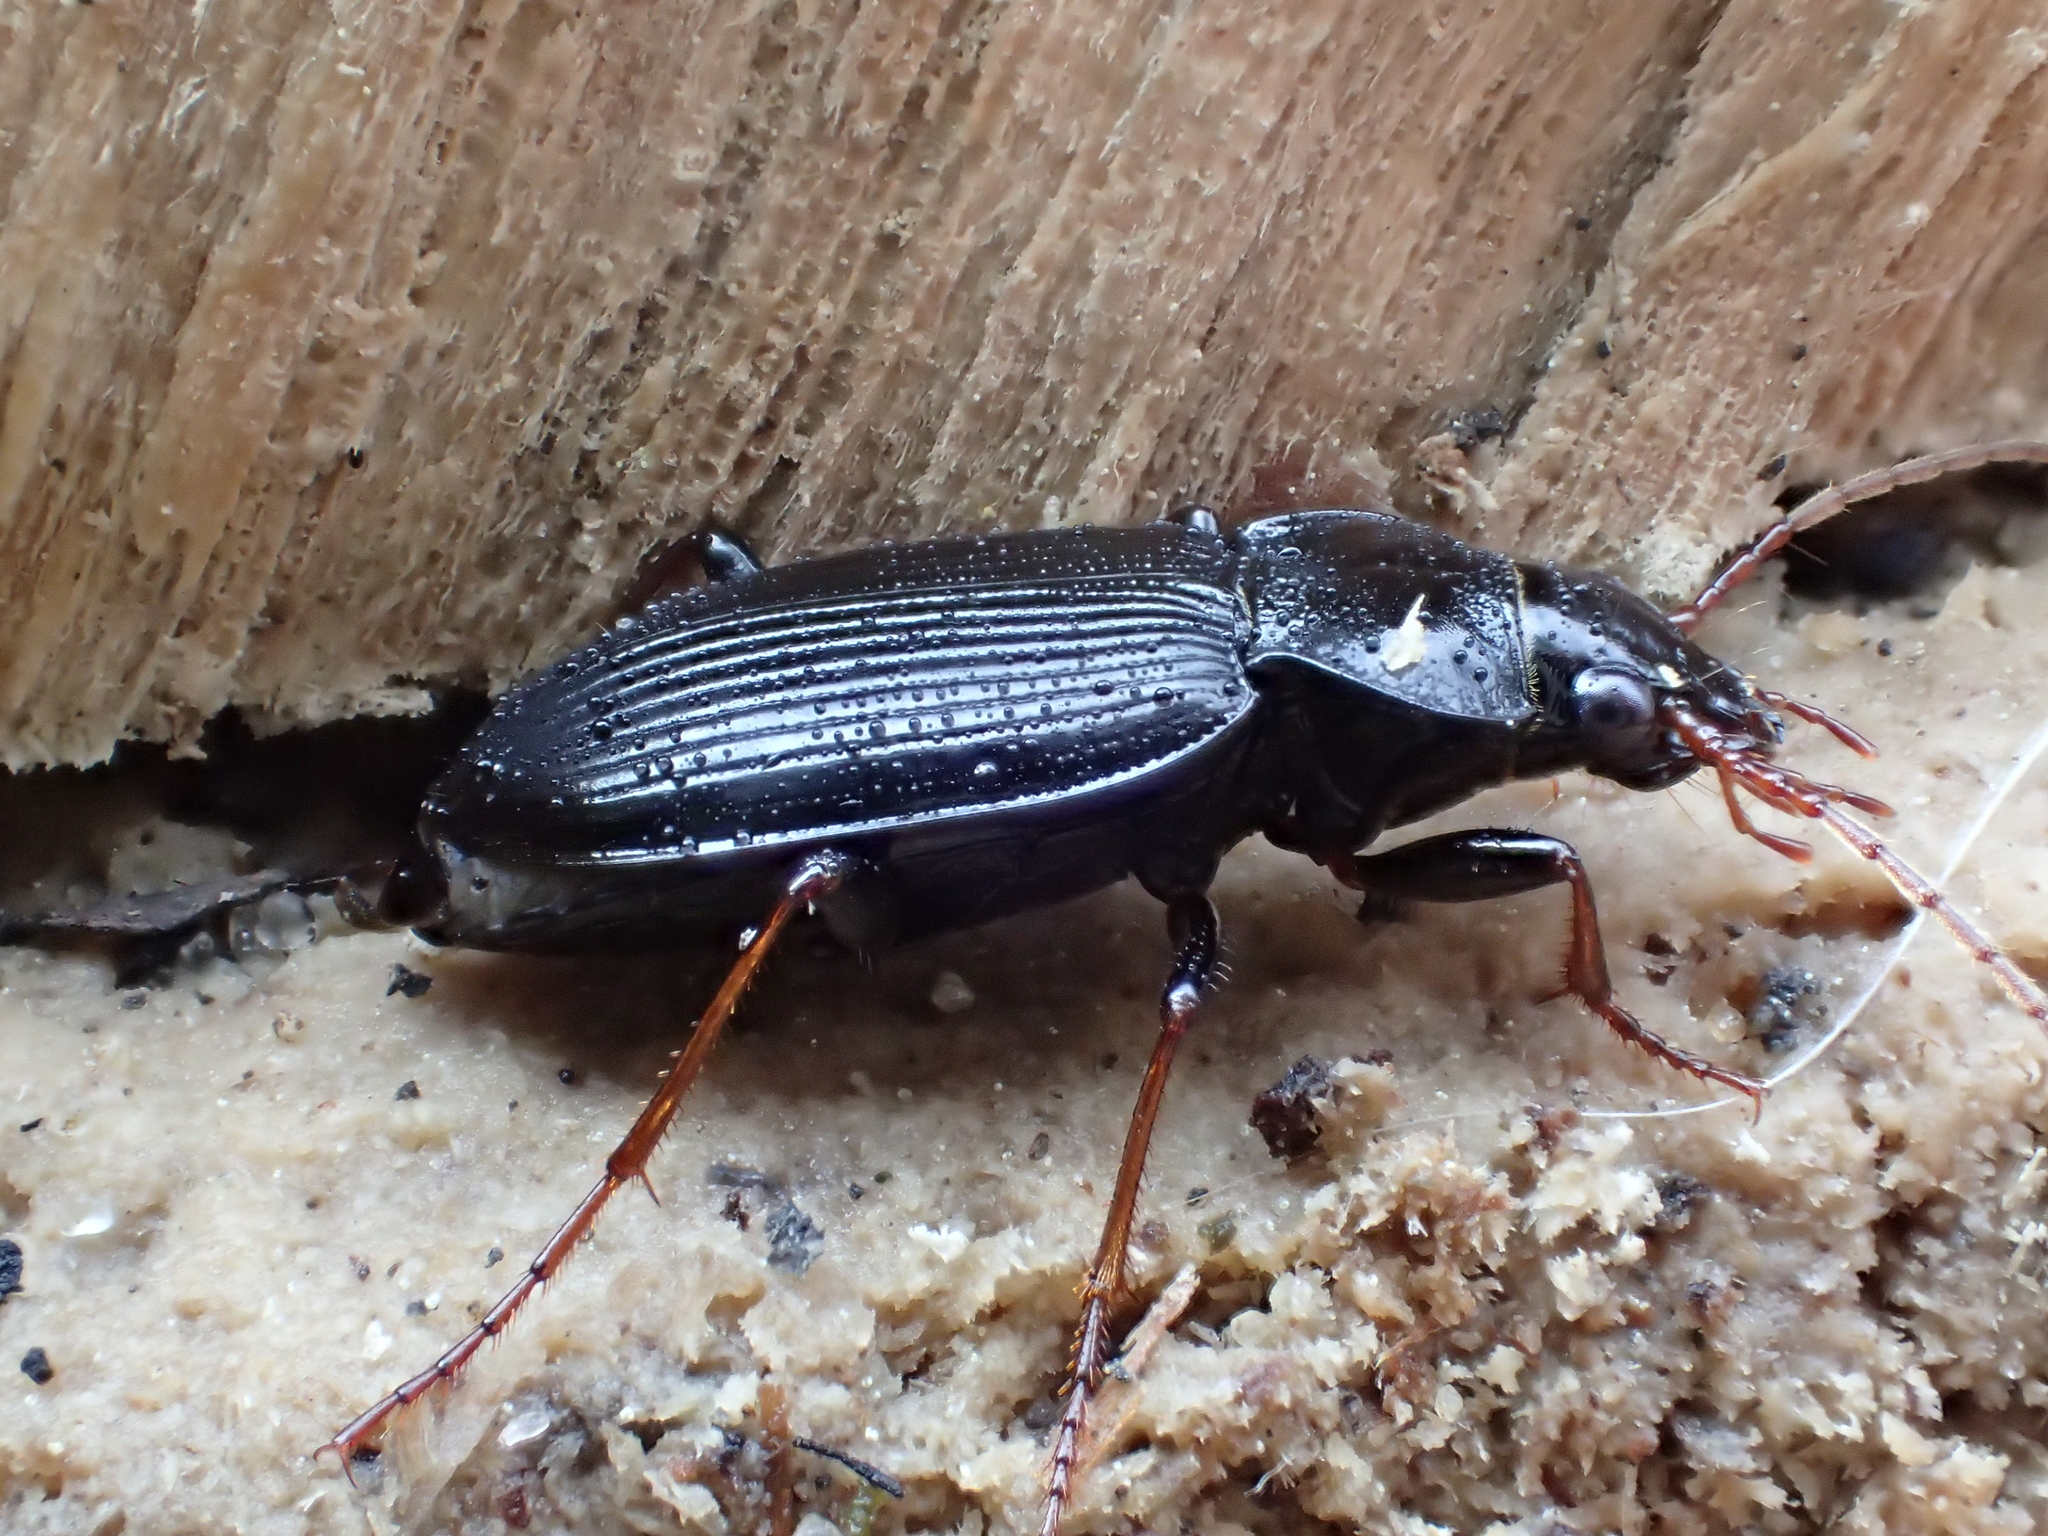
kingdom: Animalia
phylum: Arthropoda
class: Insecta
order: Coleoptera
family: Carabidae
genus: Nebria
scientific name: Nebria brevicollis
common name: Short-necked gazelle beetle
